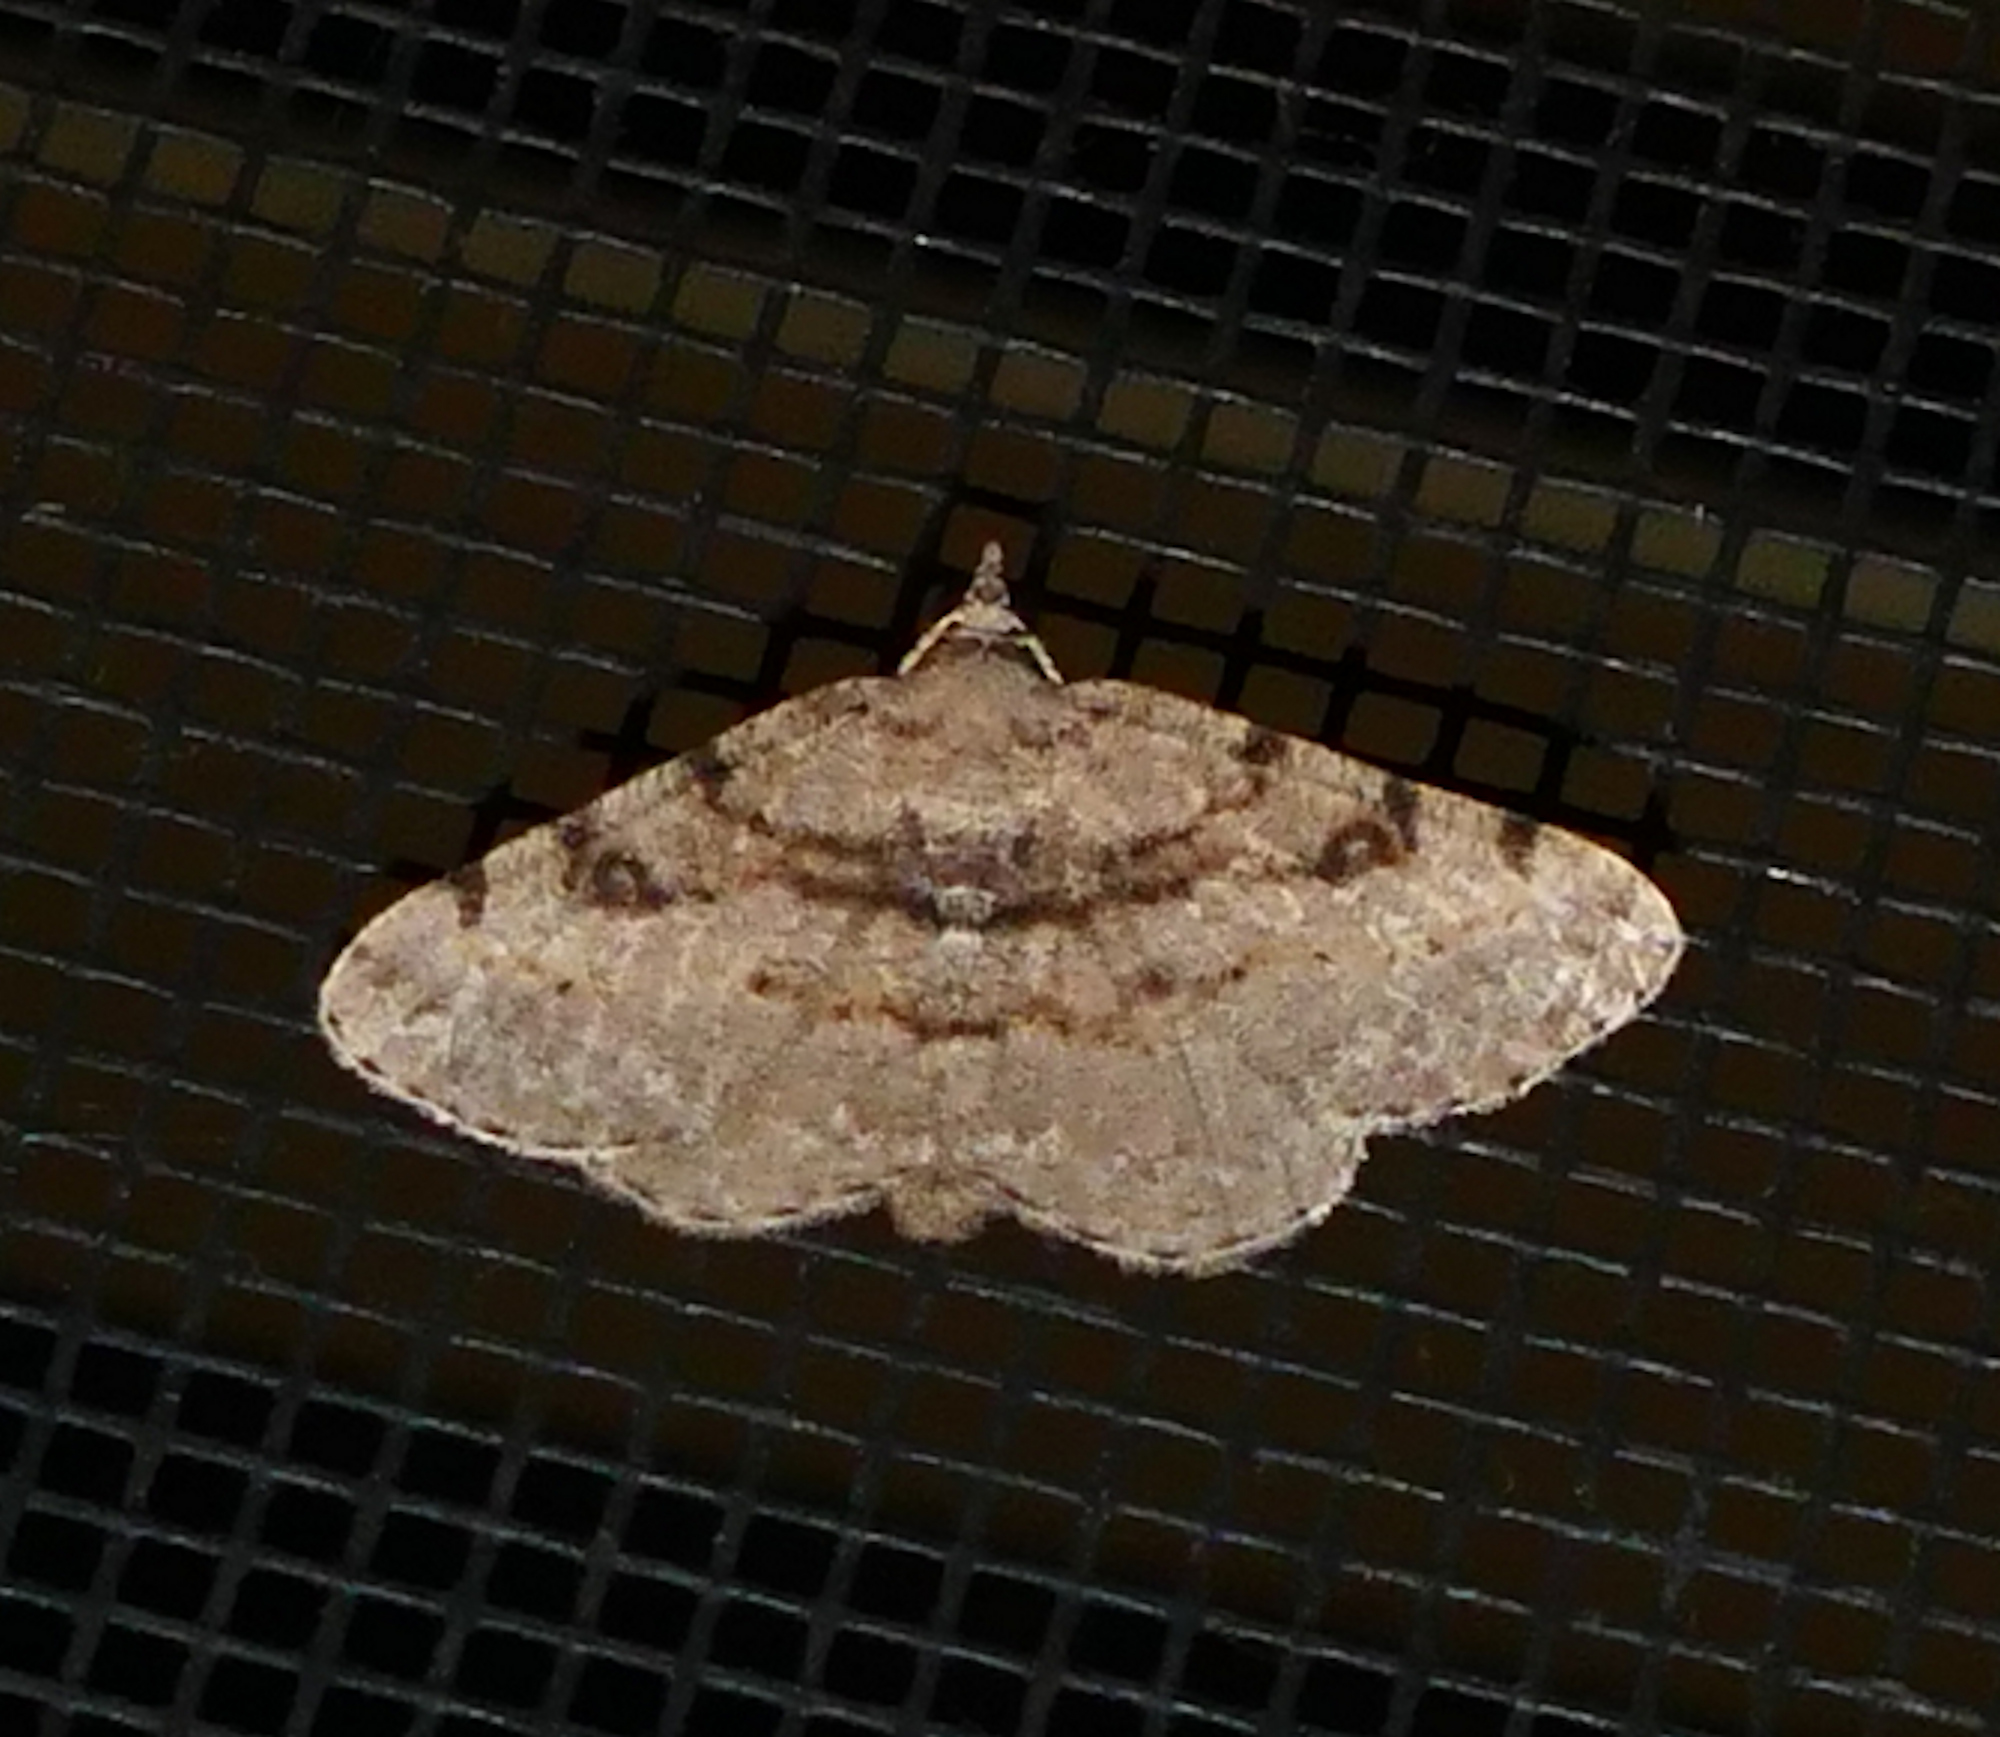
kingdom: Animalia
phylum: Arthropoda
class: Insecta
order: Lepidoptera
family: Geometridae
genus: Digrammia
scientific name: Digrammia gnophosaria
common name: Hollow-spotted angle
